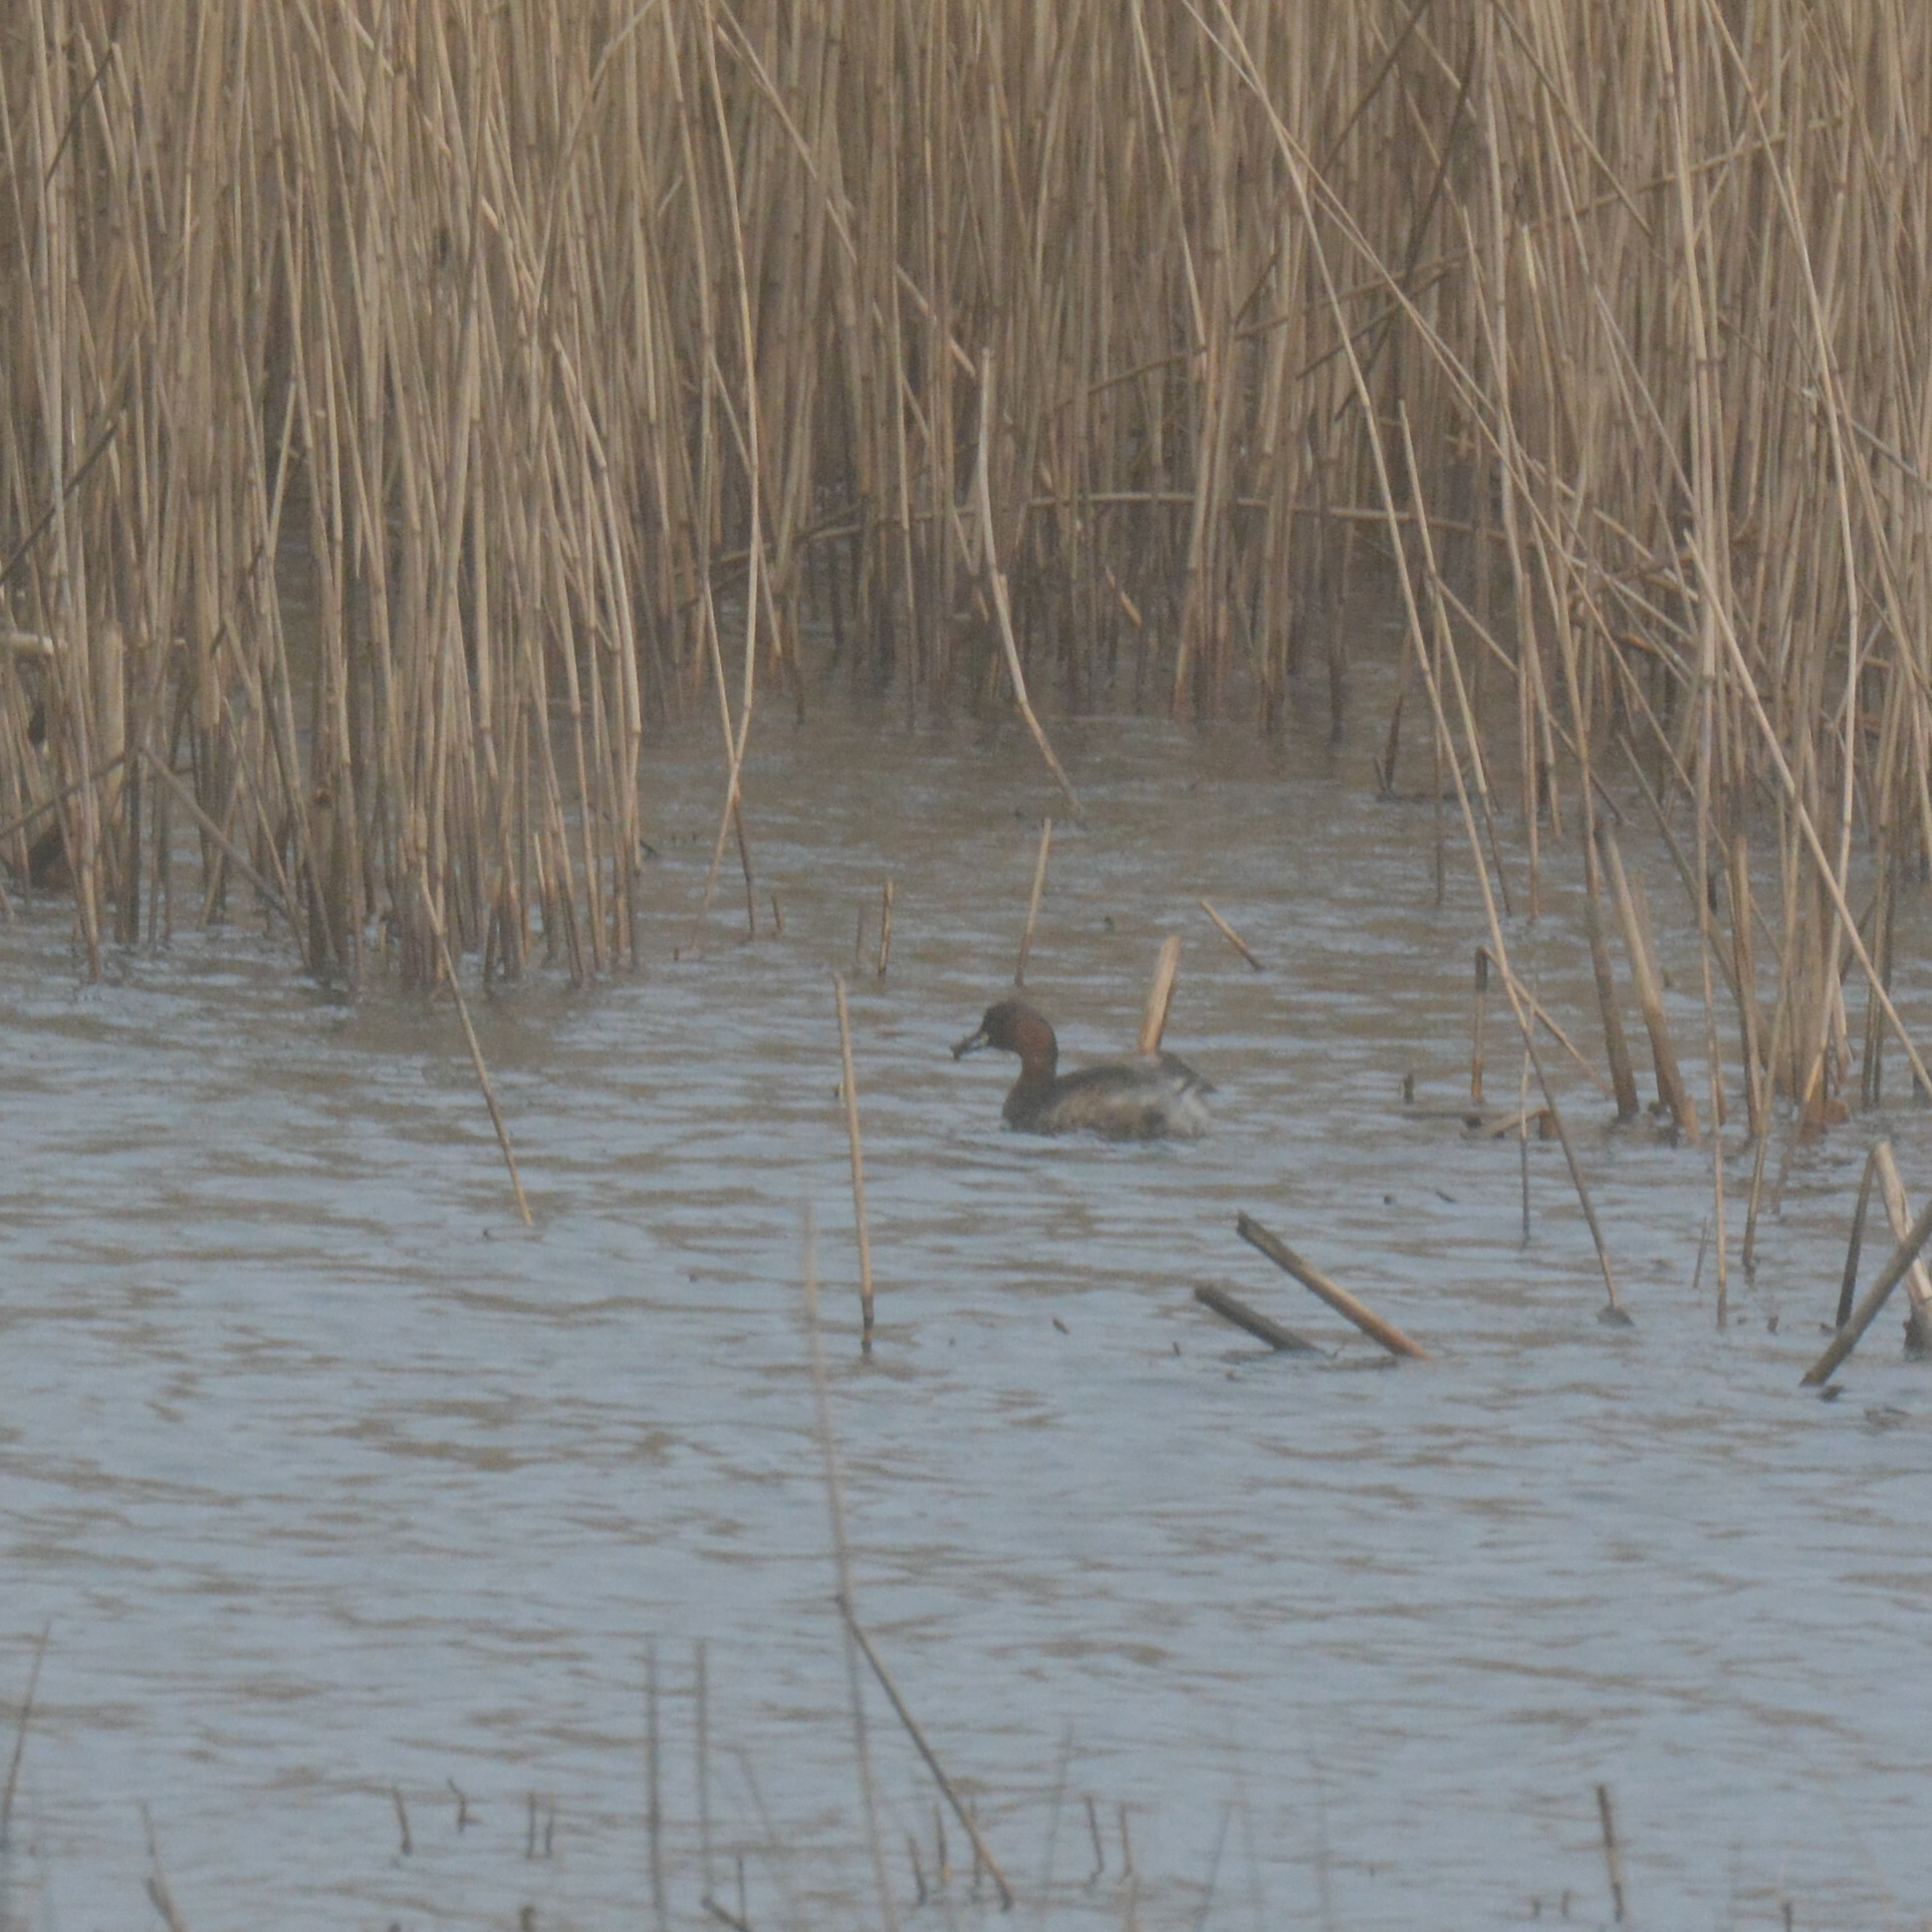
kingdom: Animalia
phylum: Chordata
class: Aves
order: Podicipediformes
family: Podicipedidae
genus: Tachybaptus
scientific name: Tachybaptus ruficollis
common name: Little grebe
